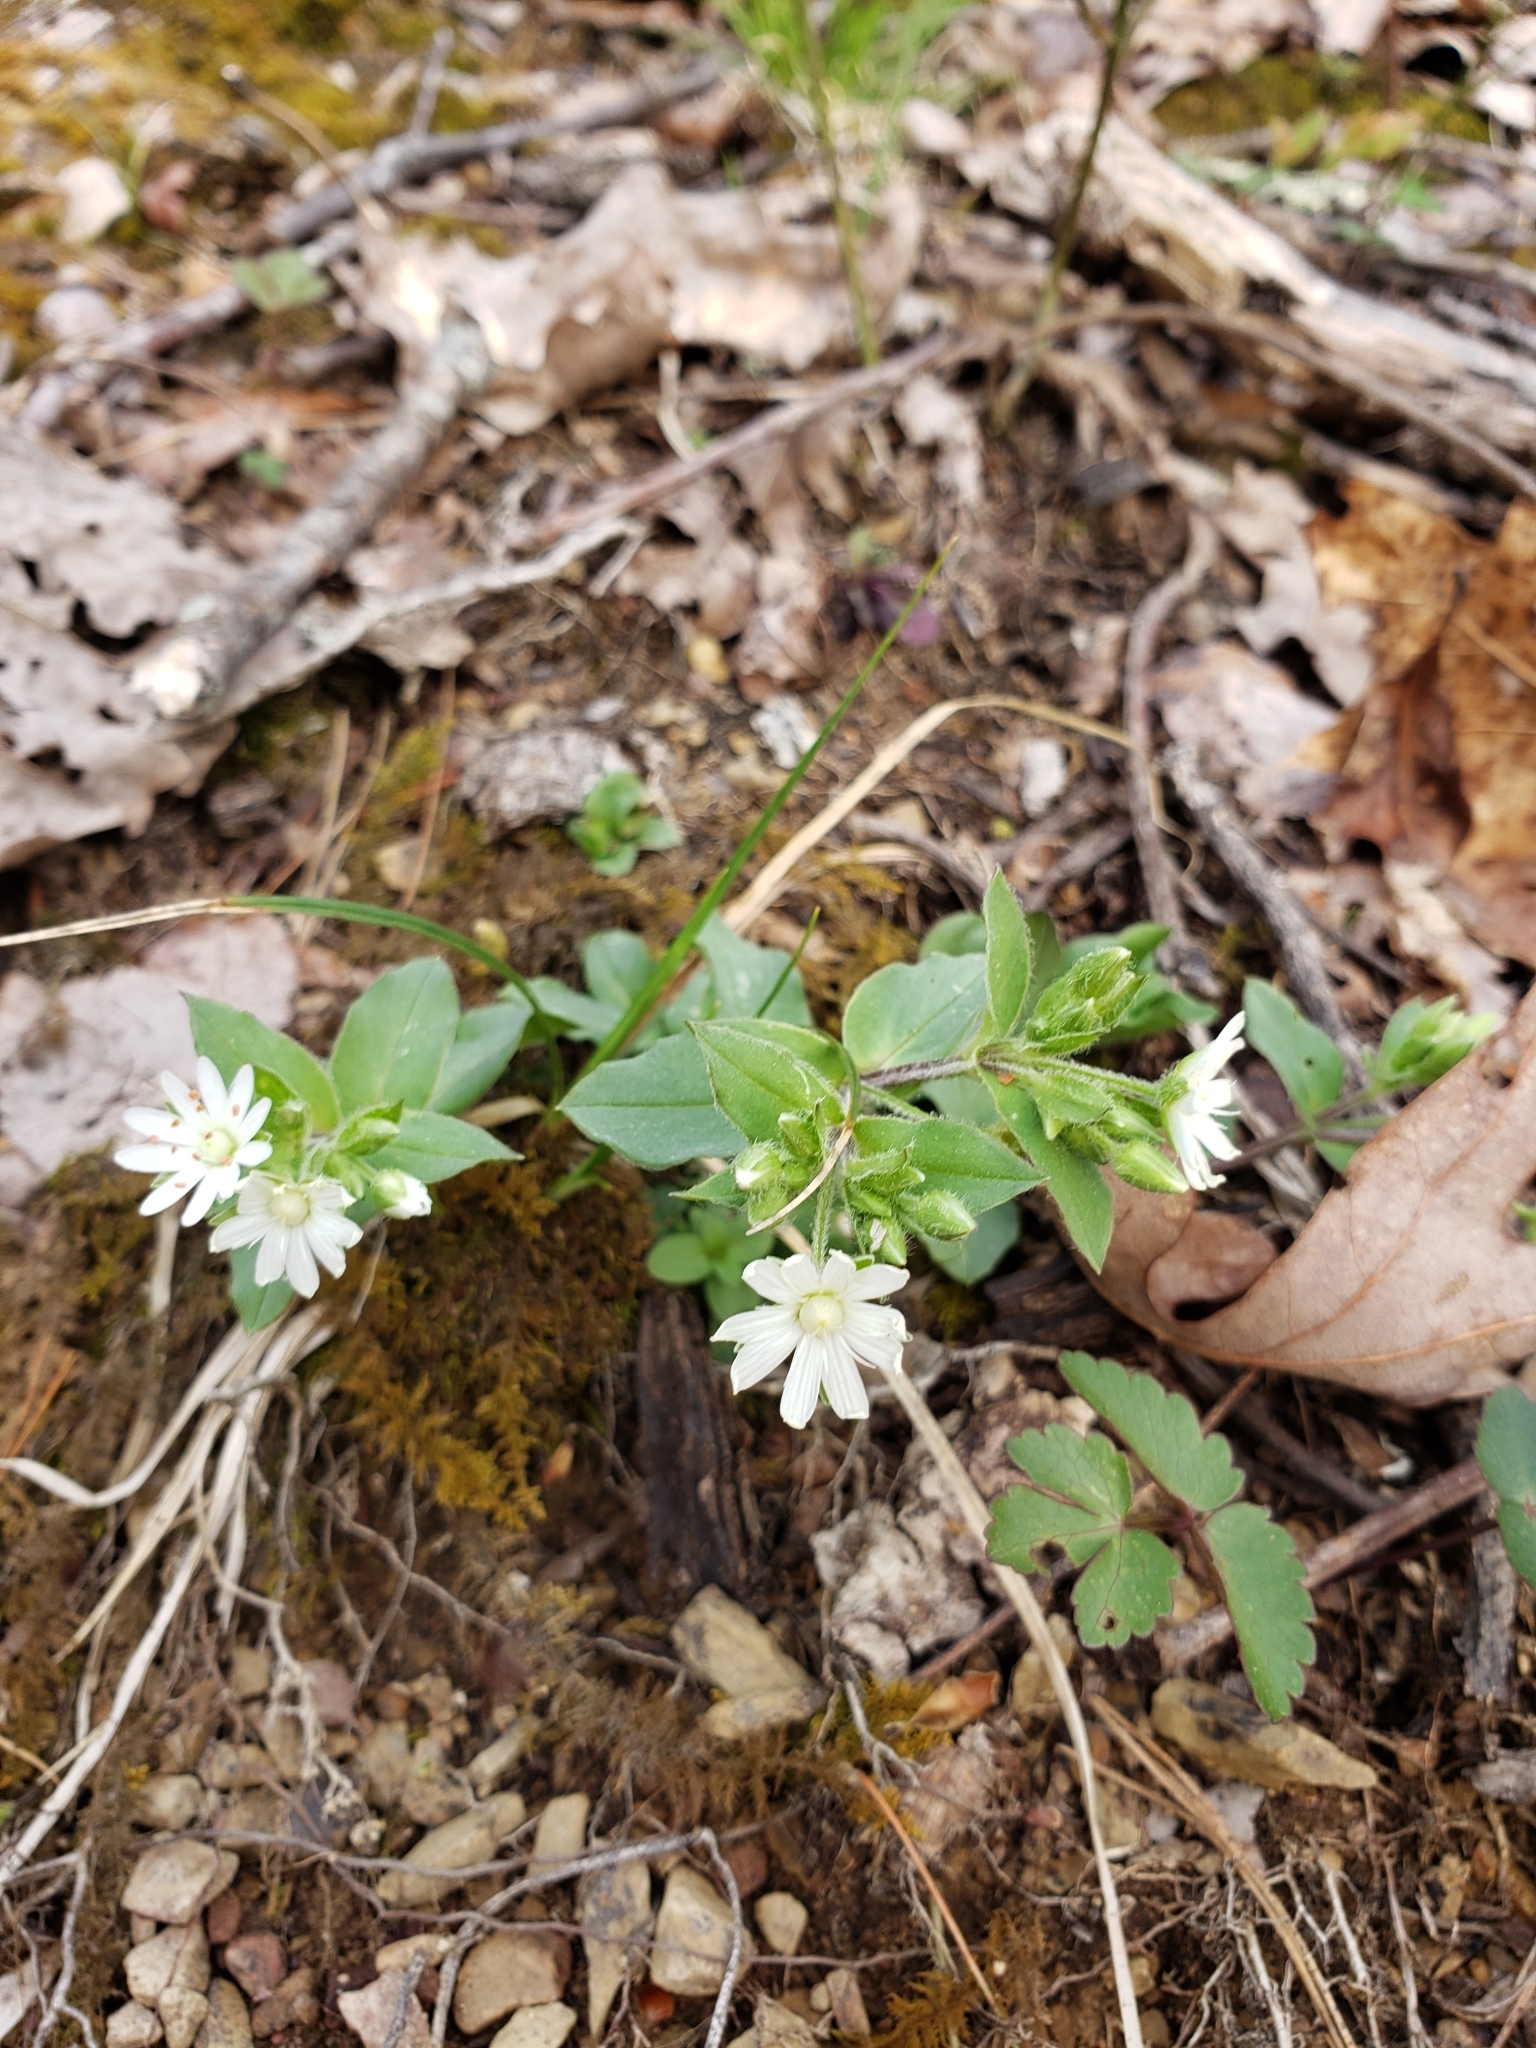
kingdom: Plantae
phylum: Tracheophyta
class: Magnoliopsida
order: Caryophyllales
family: Caryophyllaceae
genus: Stellaria
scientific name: Stellaria pubera
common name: Star chickweed
